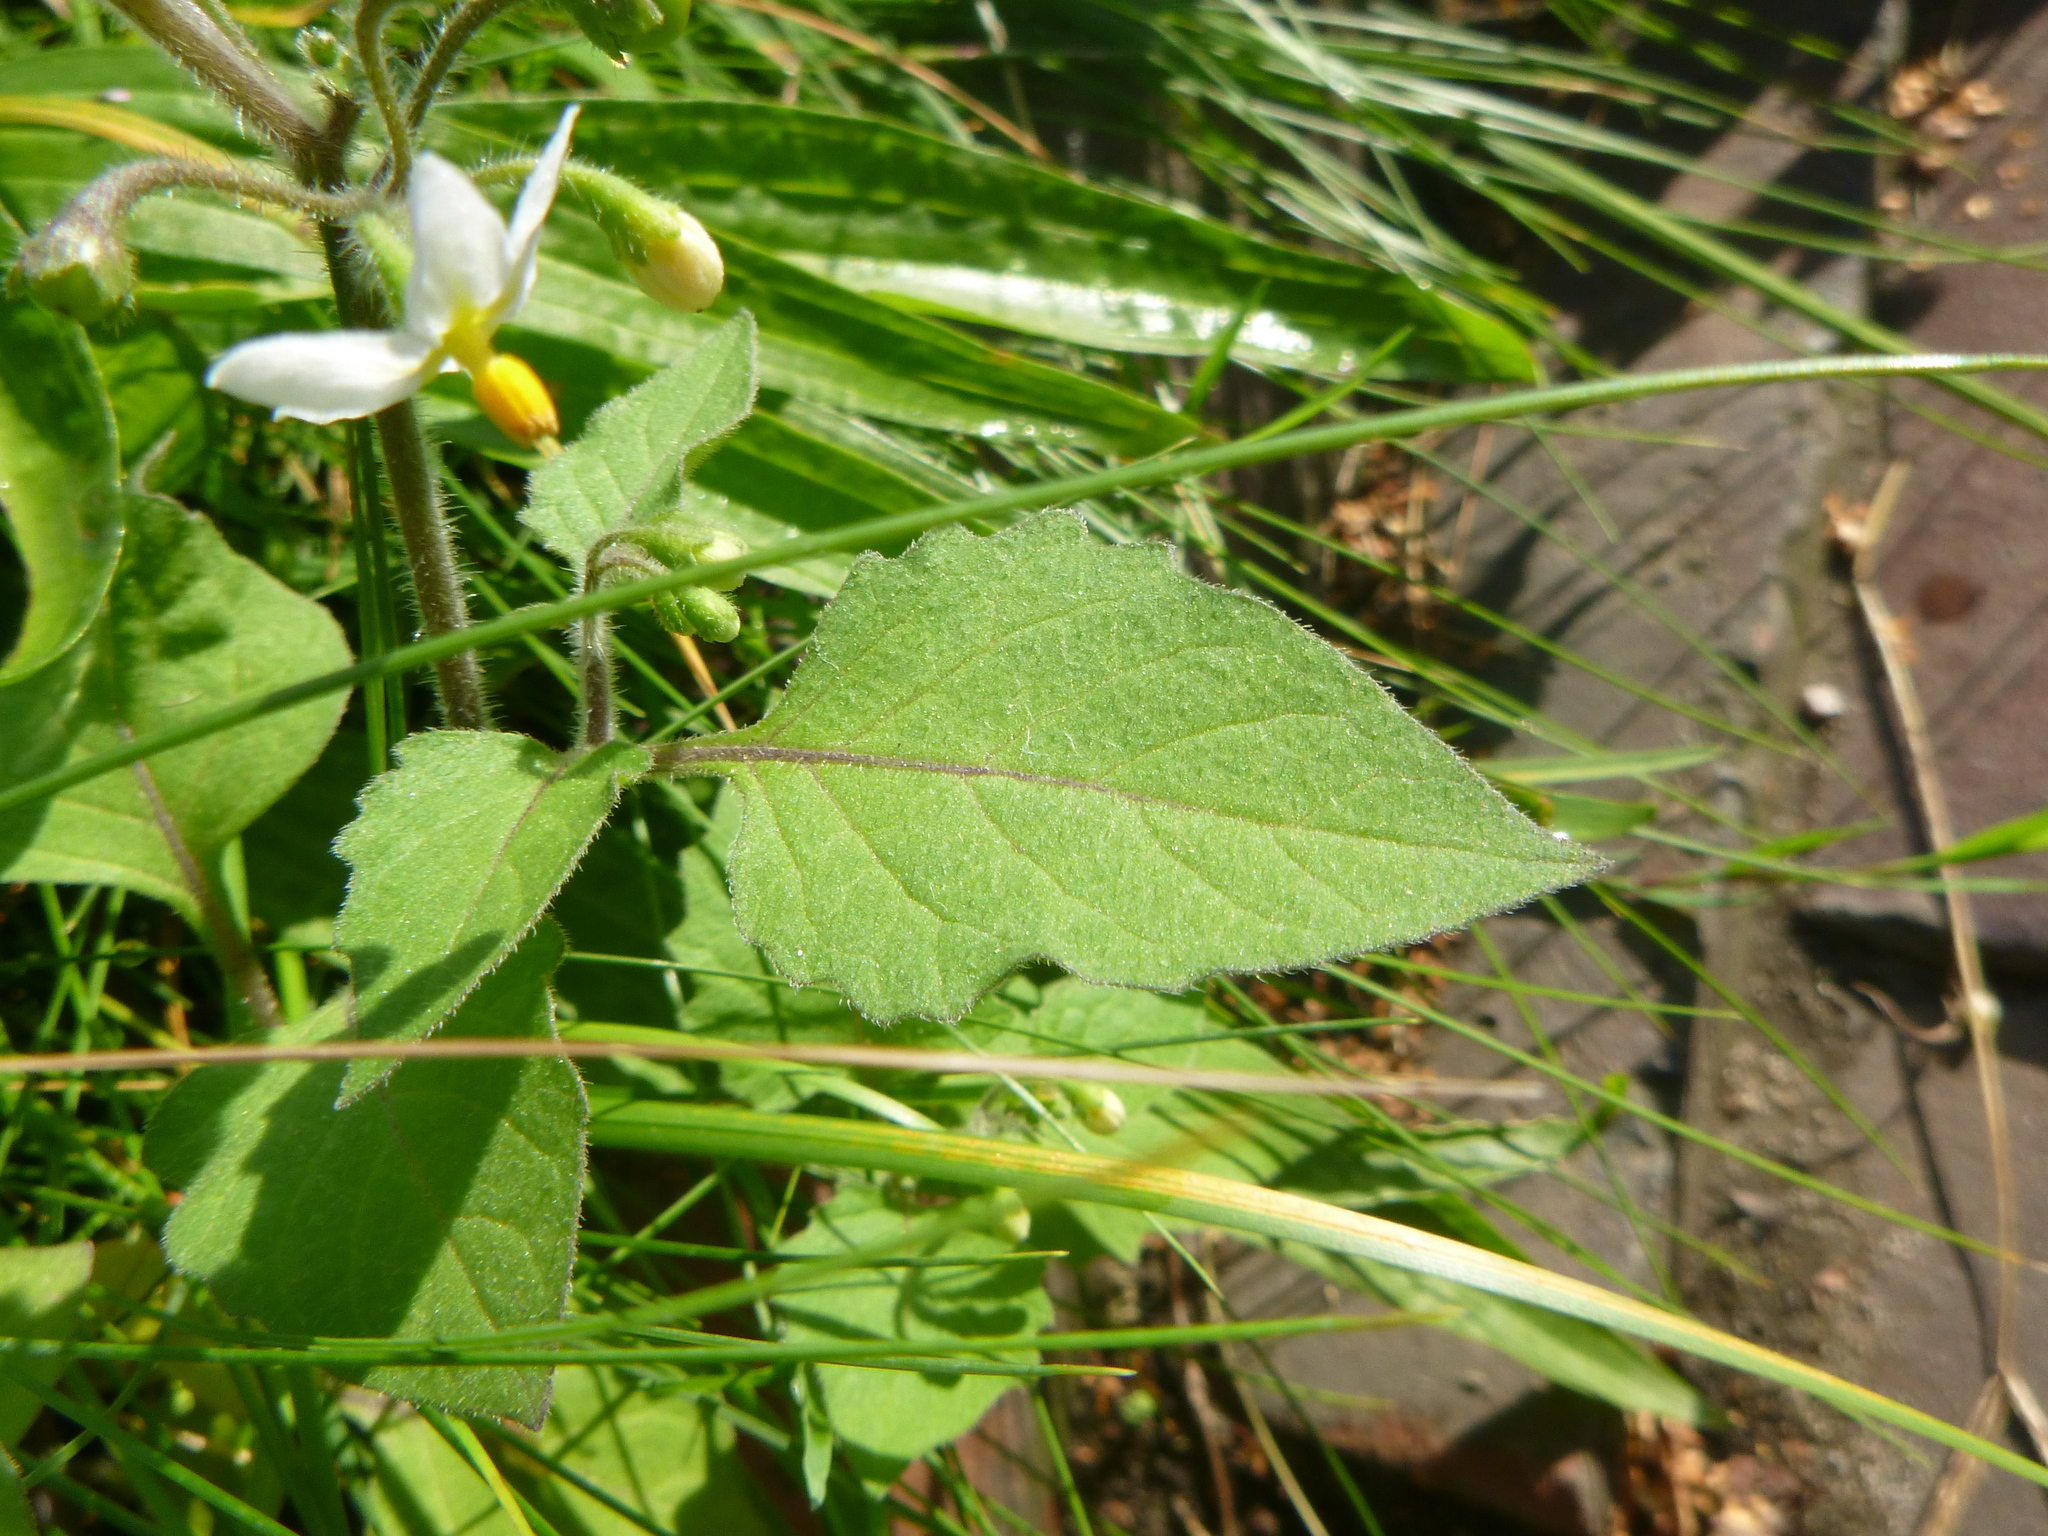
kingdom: Plantae
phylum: Tracheophyta
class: Magnoliopsida
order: Solanales
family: Solanaceae
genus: Solanum
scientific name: Solanum nigrum
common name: Black nightshade
